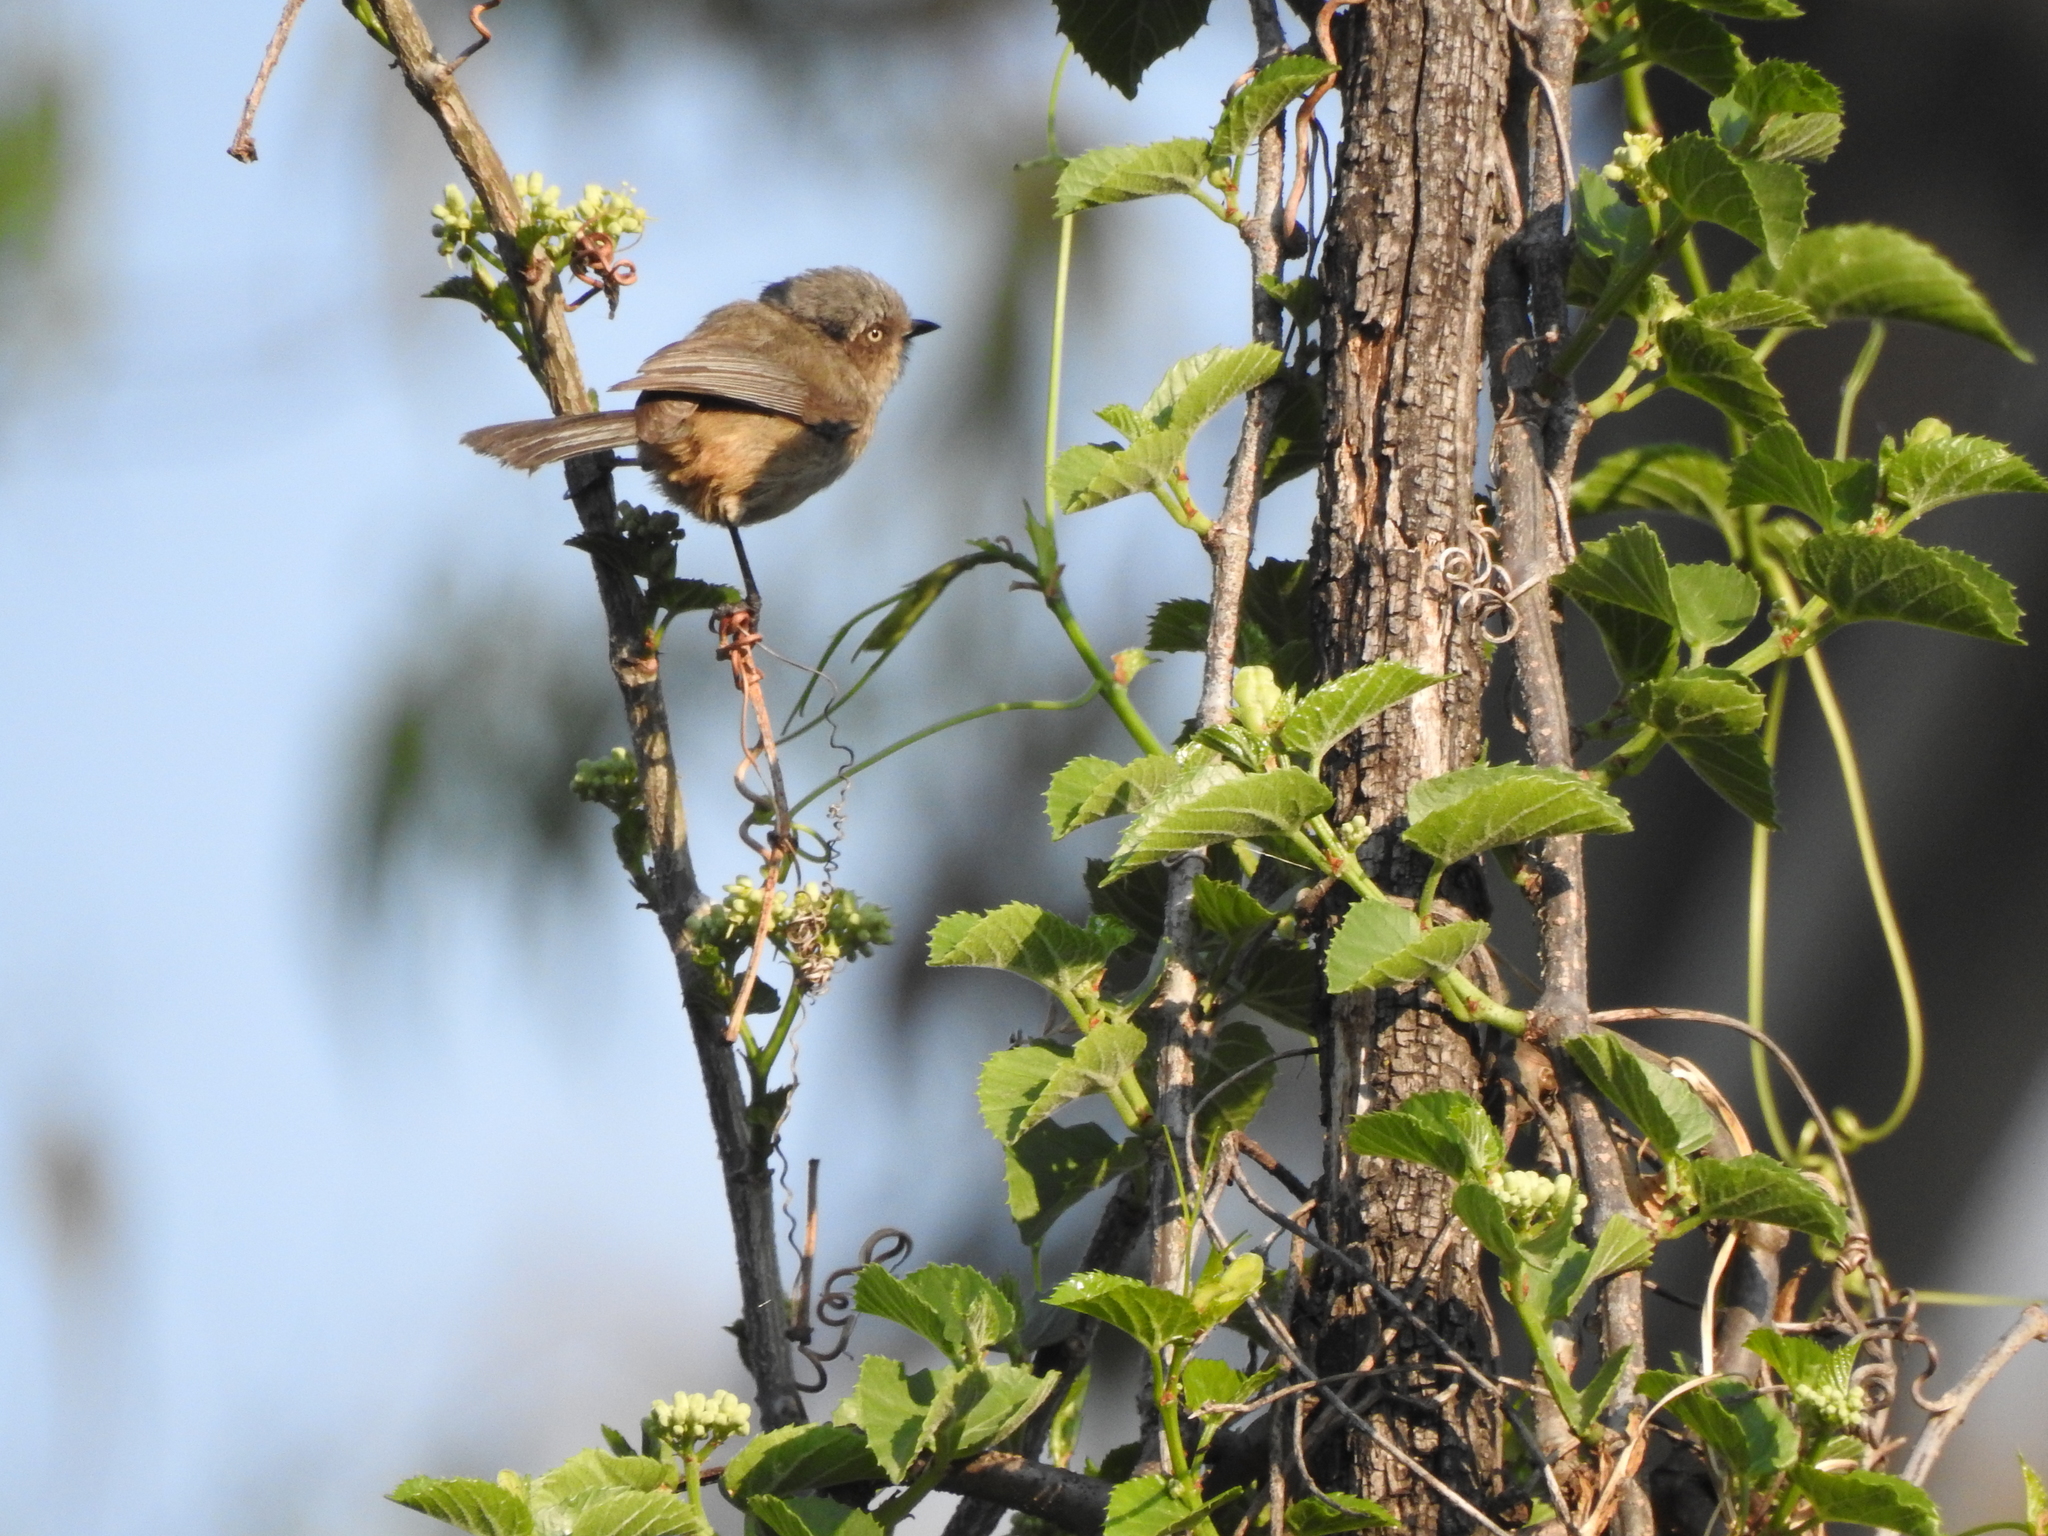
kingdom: Animalia
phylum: Chordata
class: Aves
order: Passeriformes
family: Aegithalidae
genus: Psaltriparus
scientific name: Psaltriparus minimus
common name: American bushtit
